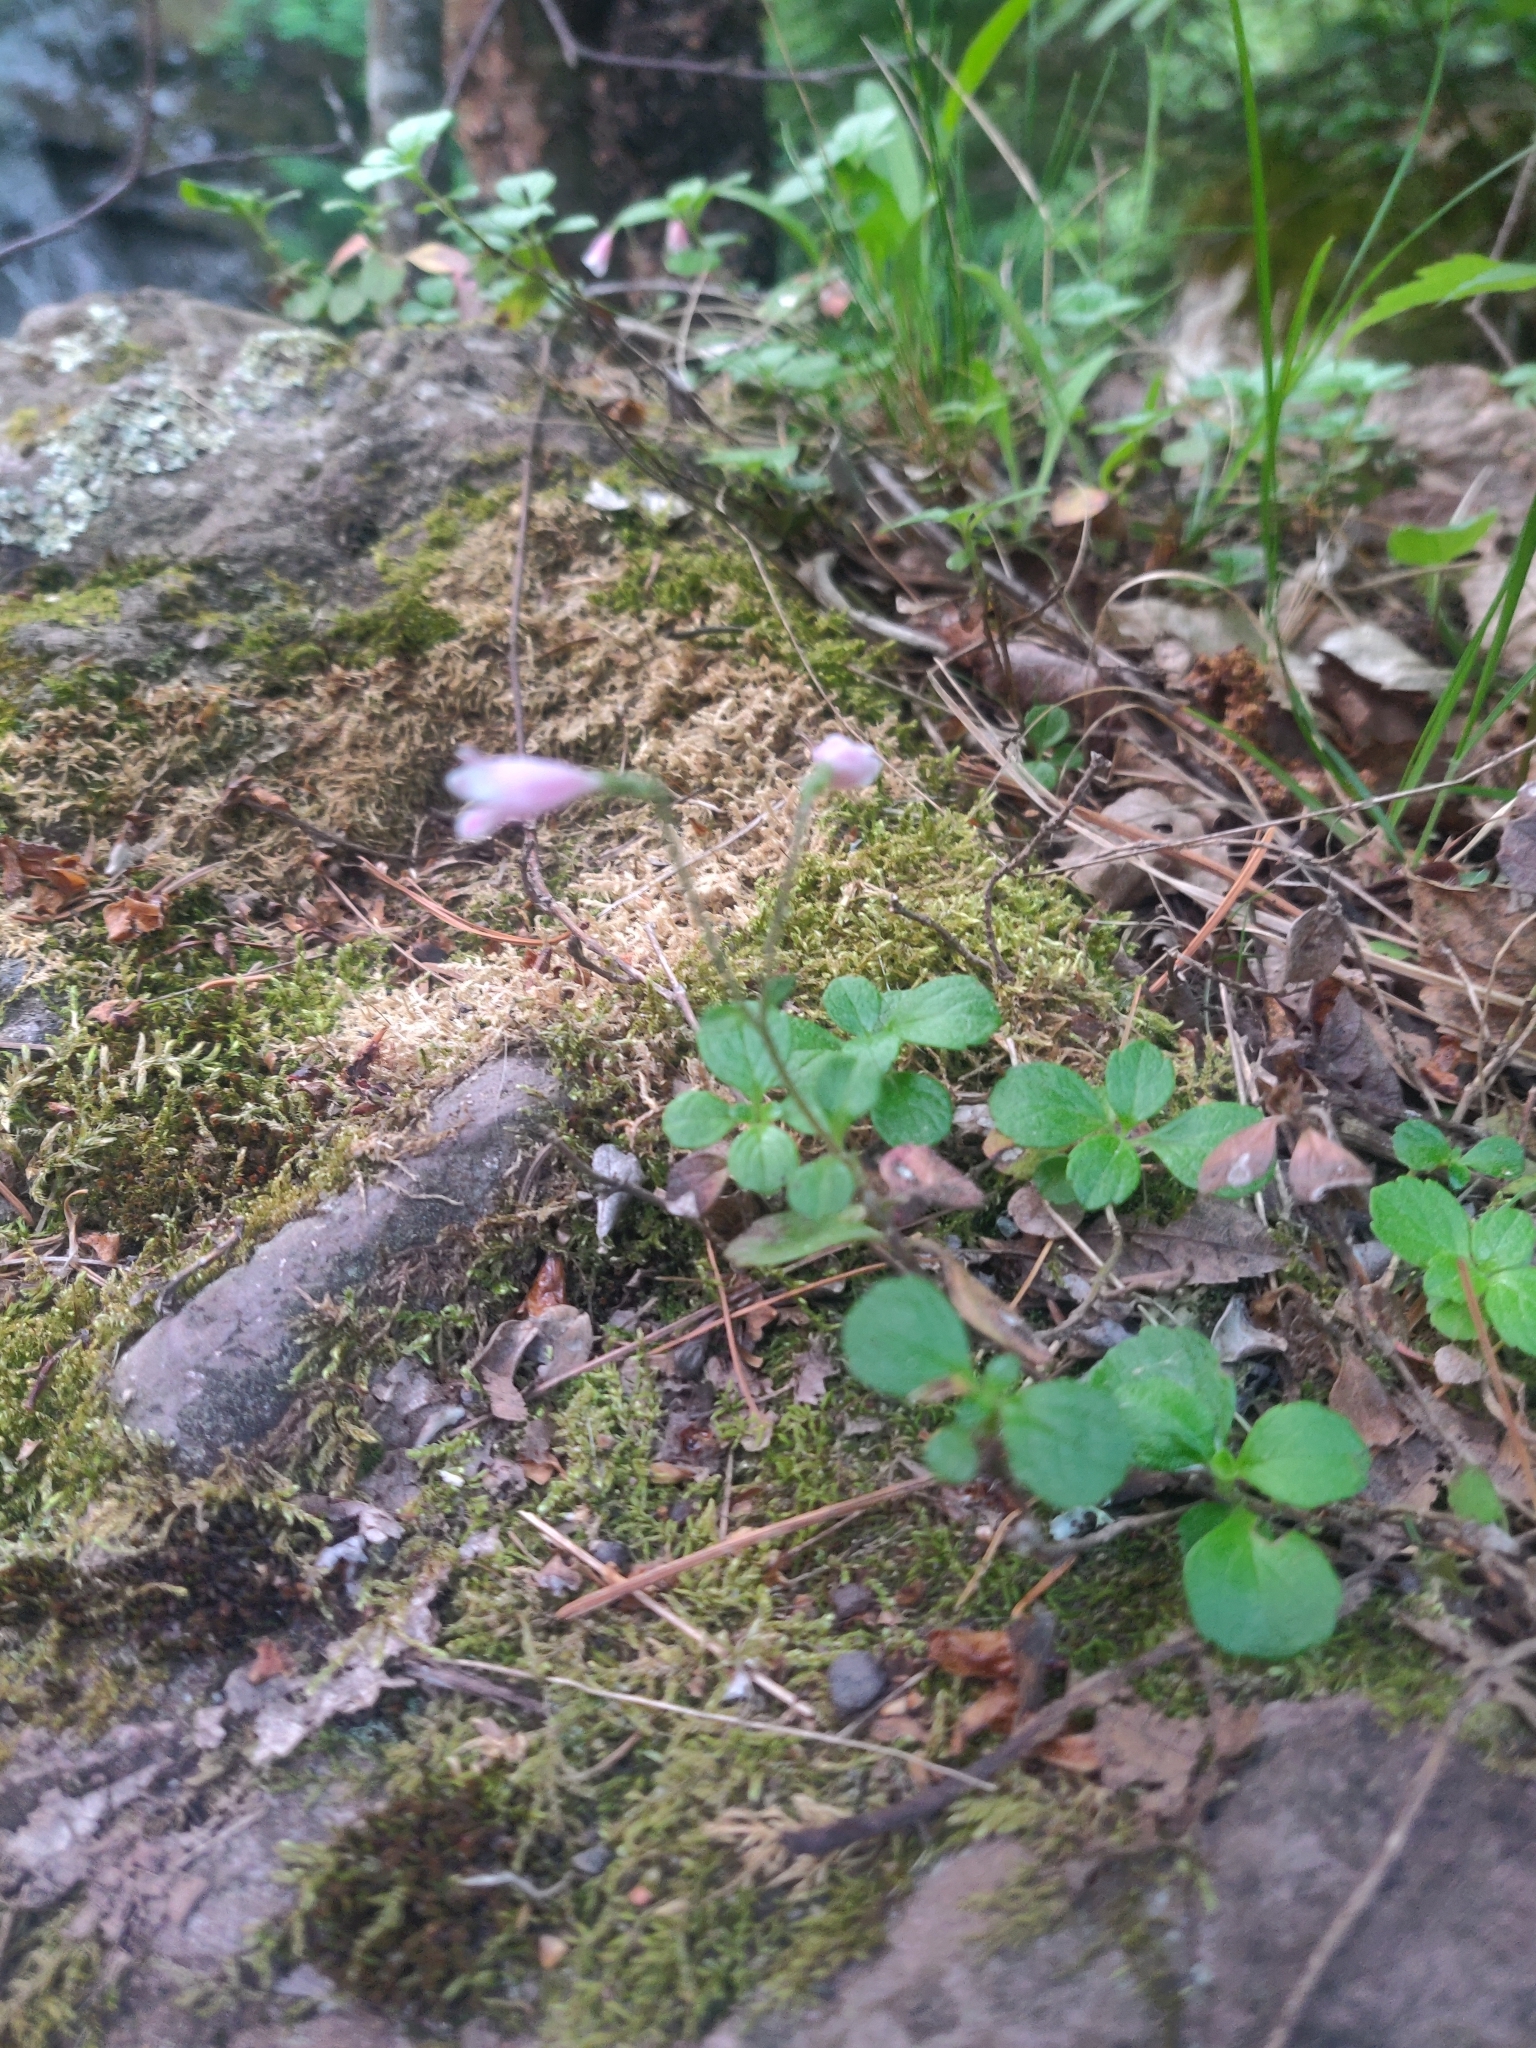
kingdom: Plantae
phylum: Tracheophyta
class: Magnoliopsida
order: Dipsacales
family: Caprifoliaceae
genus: Linnaea
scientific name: Linnaea borealis
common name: Twinflower
